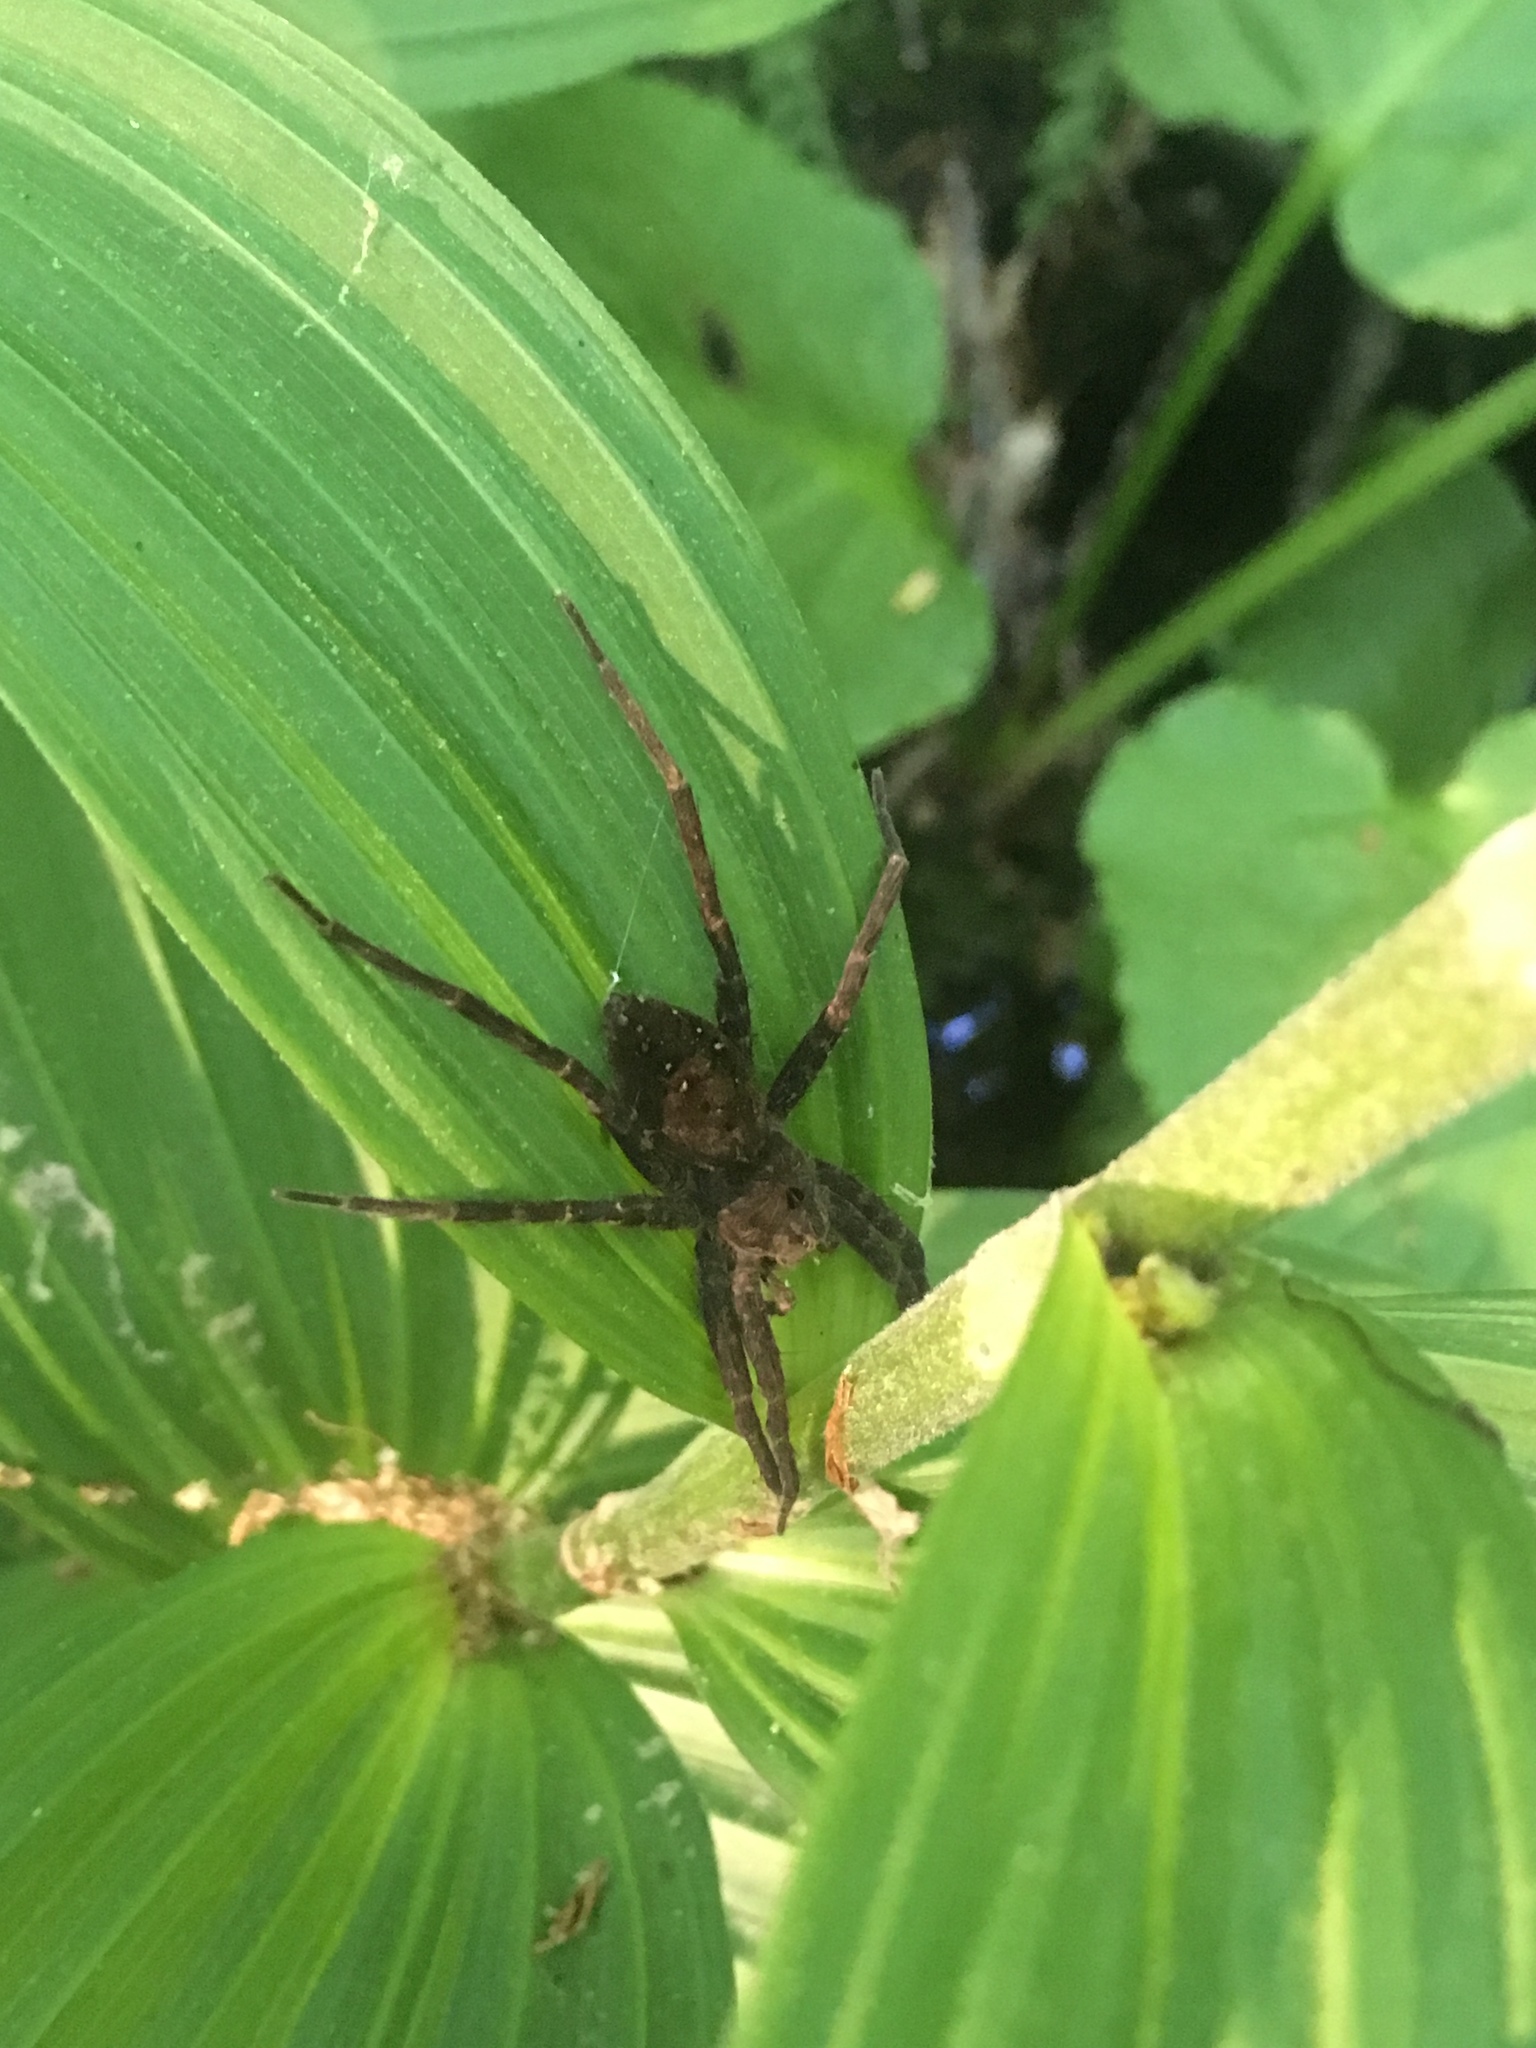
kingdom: Animalia
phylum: Arthropoda
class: Arachnida
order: Araneae
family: Pisauridae
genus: Dolomedes
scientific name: Dolomedes vittatus
